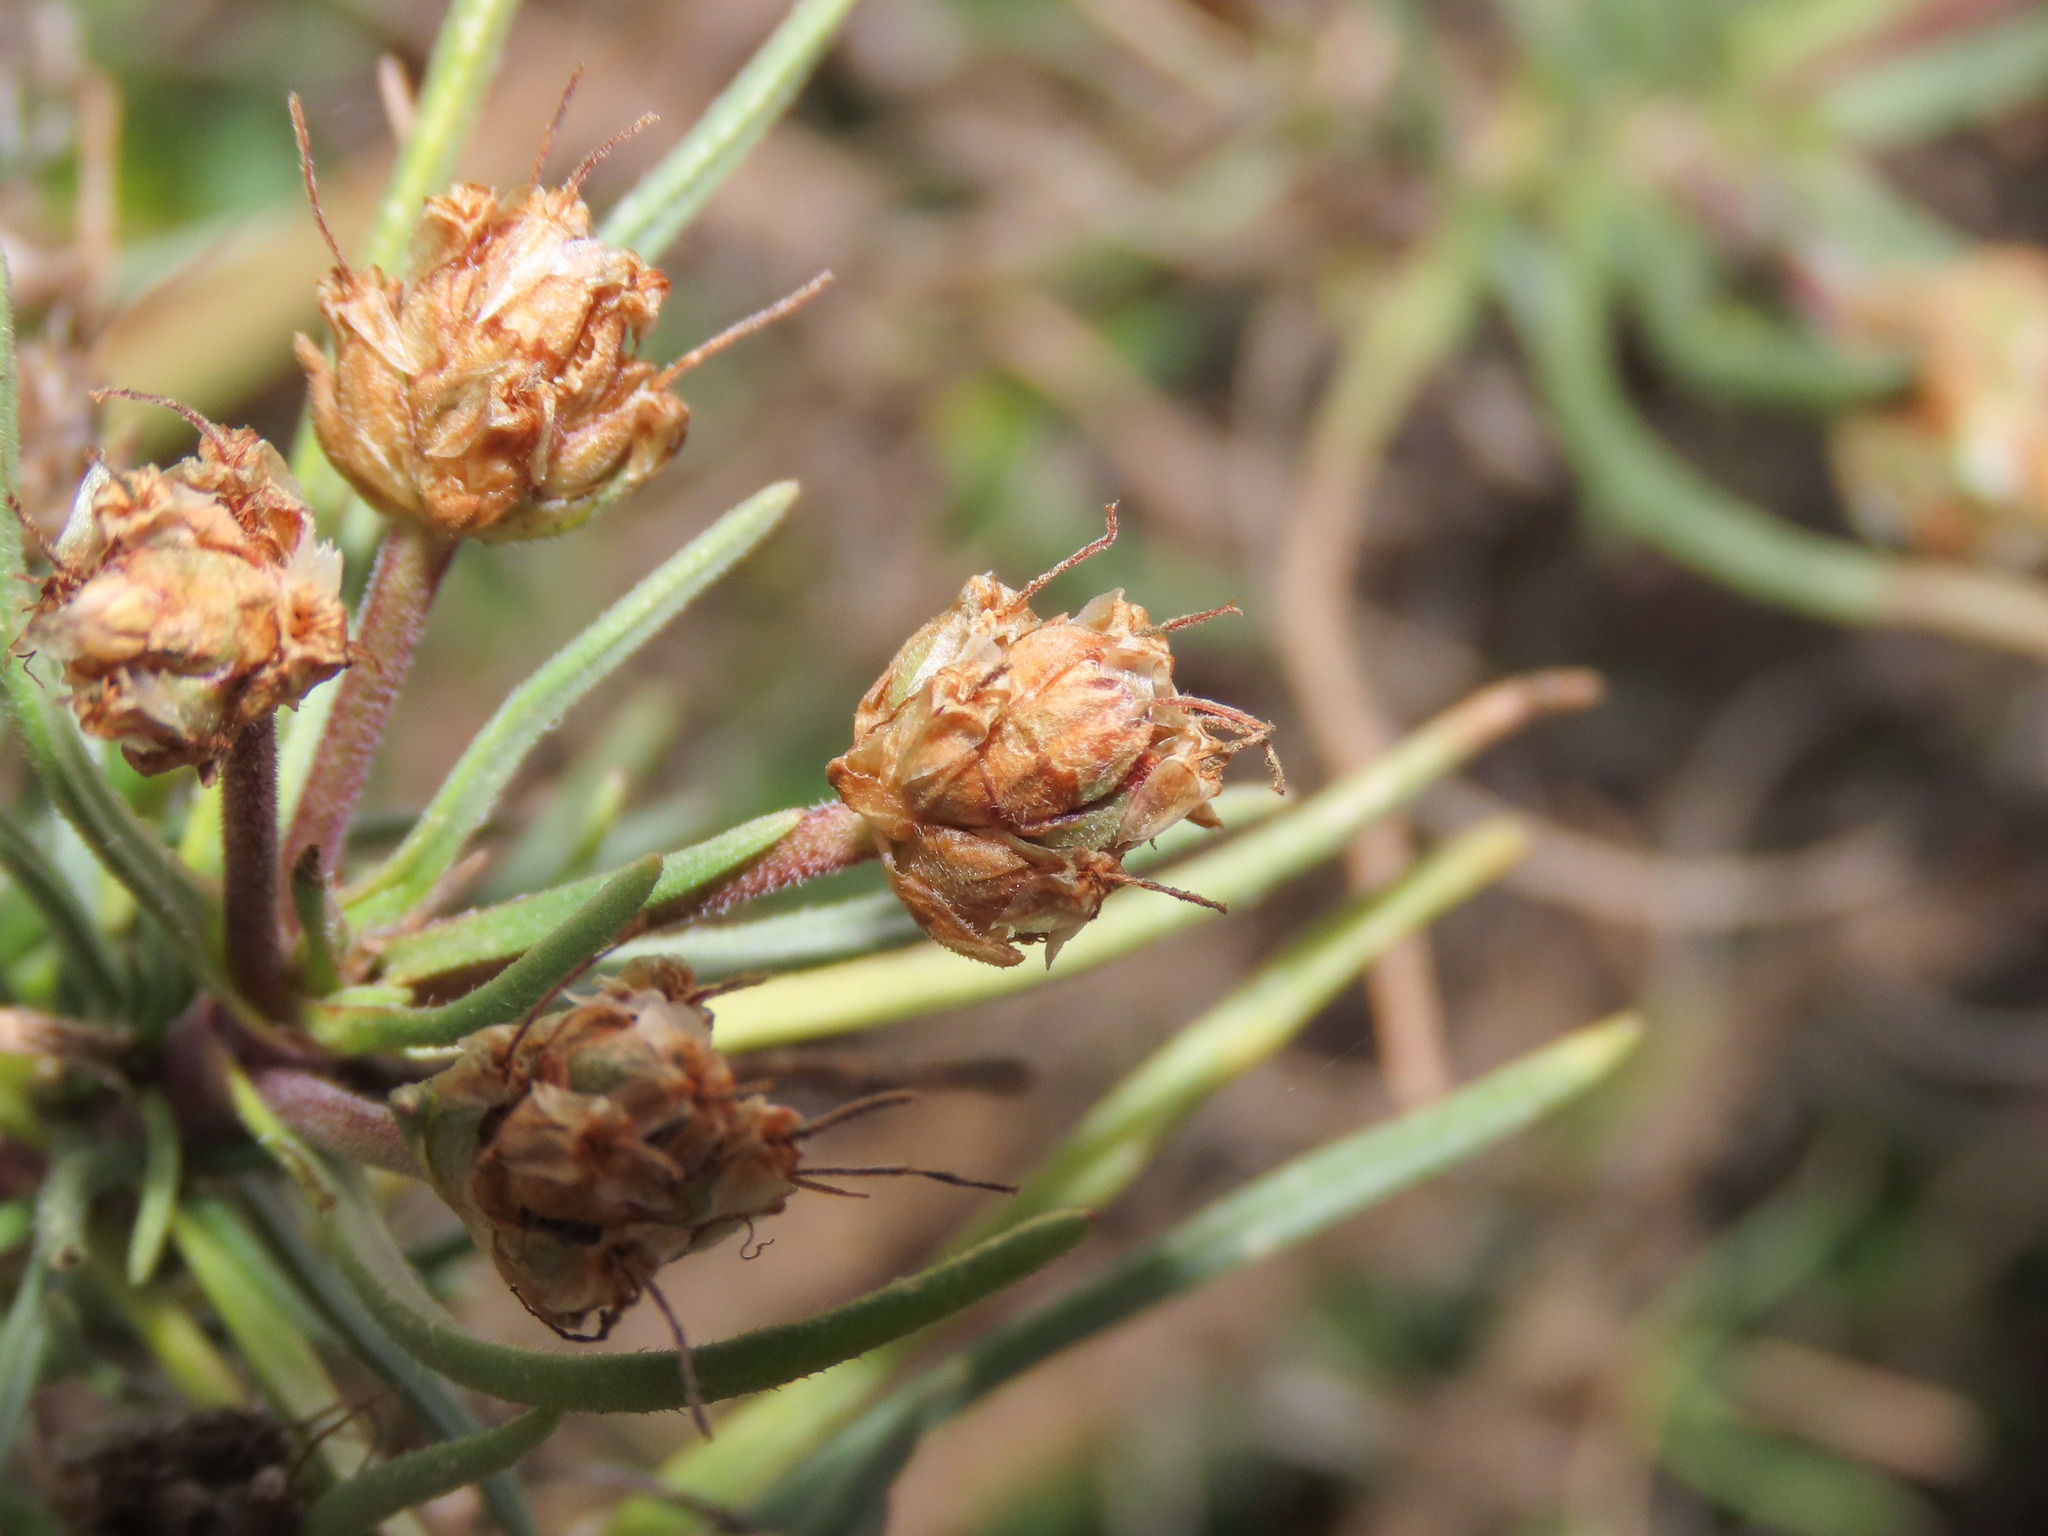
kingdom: Plantae
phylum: Tracheophyta
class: Magnoliopsida
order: Lamiales
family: Plantaginaceae
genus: Plantago
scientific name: Plantago sempervirens
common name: Shrubby plantain
